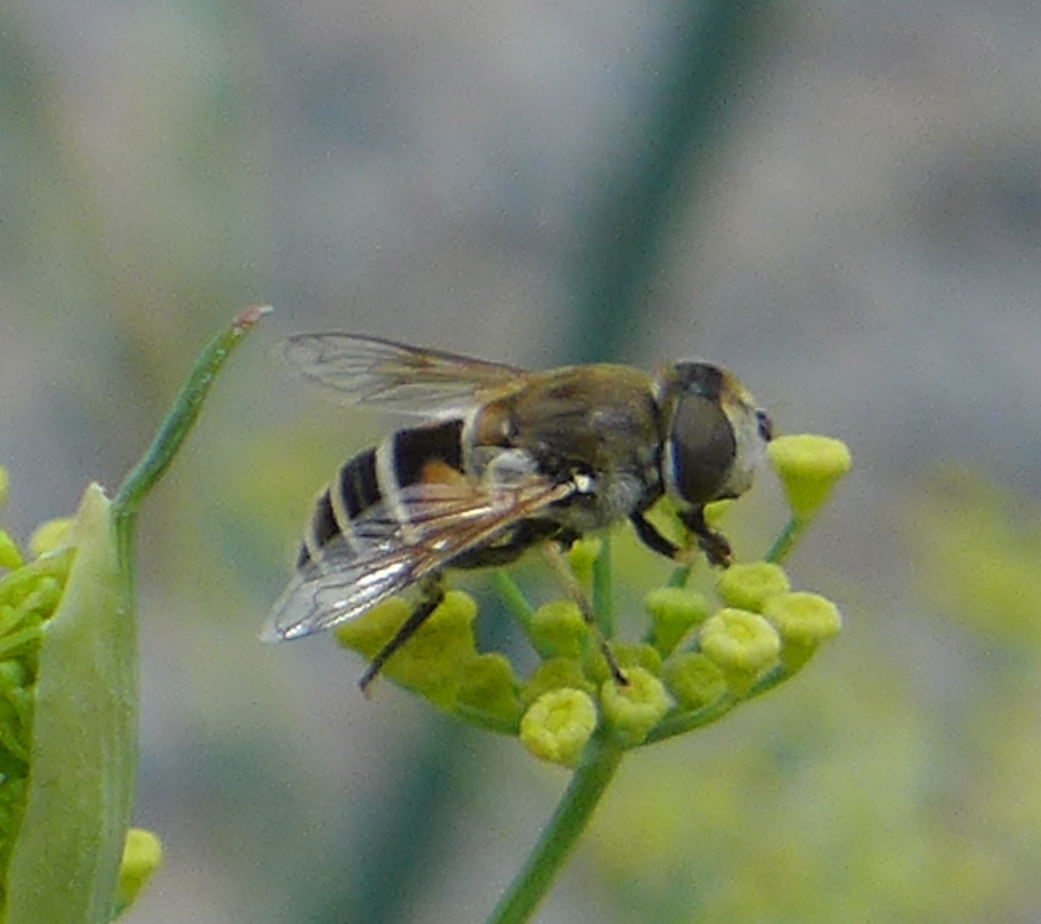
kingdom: Animalia
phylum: Arthropoda
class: Insecta
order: Diptera
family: Syrphidae
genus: Eristalis
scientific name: Eristalis arbustorum
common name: Hover fly
